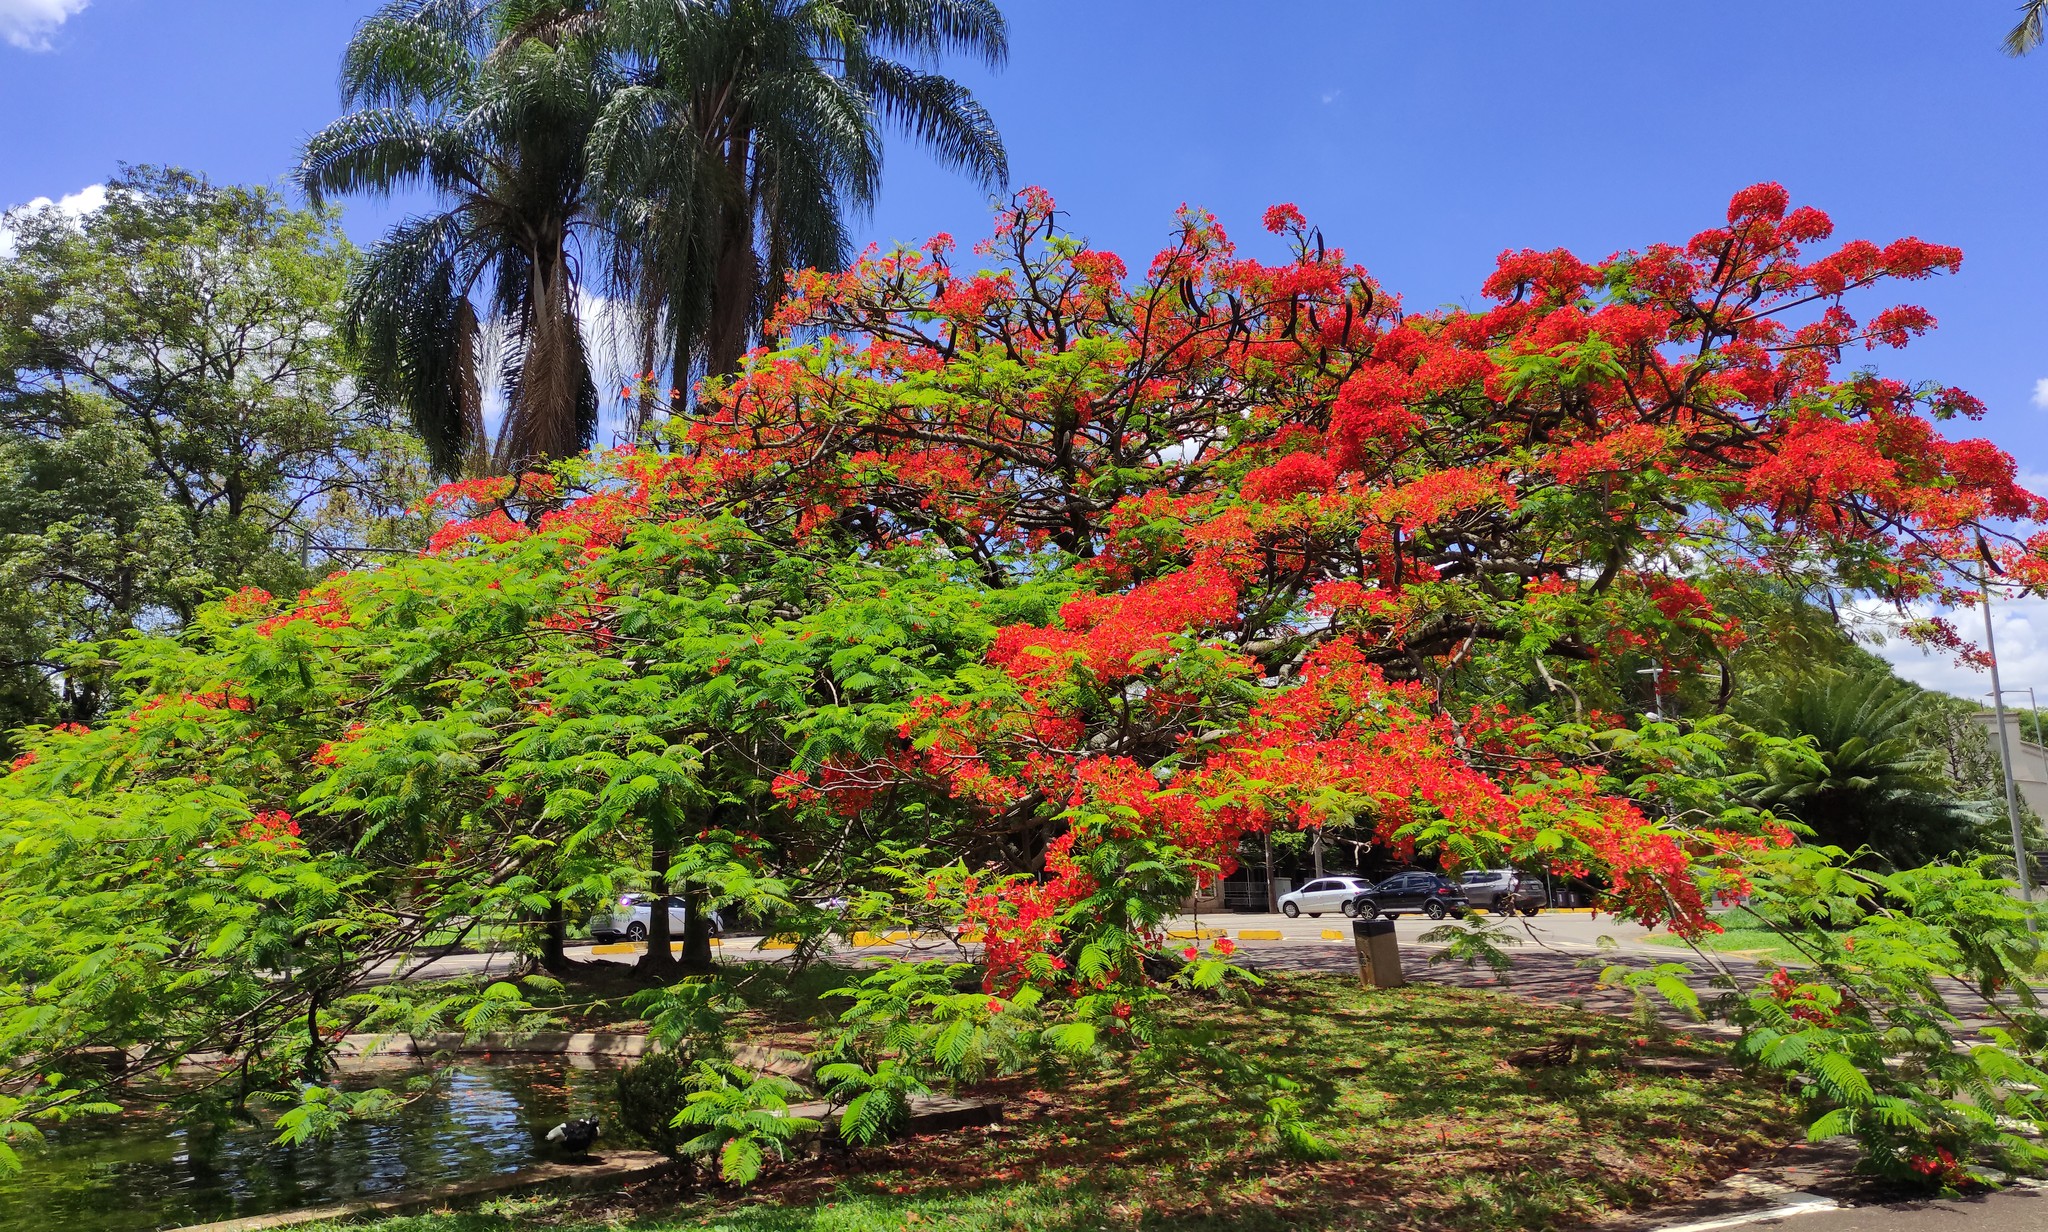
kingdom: Plantae
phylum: Tracheophyta
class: Magnoliopsida
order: Fabales
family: Fabaceae
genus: Delonix
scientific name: Delonix regia
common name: Royal poinciana
